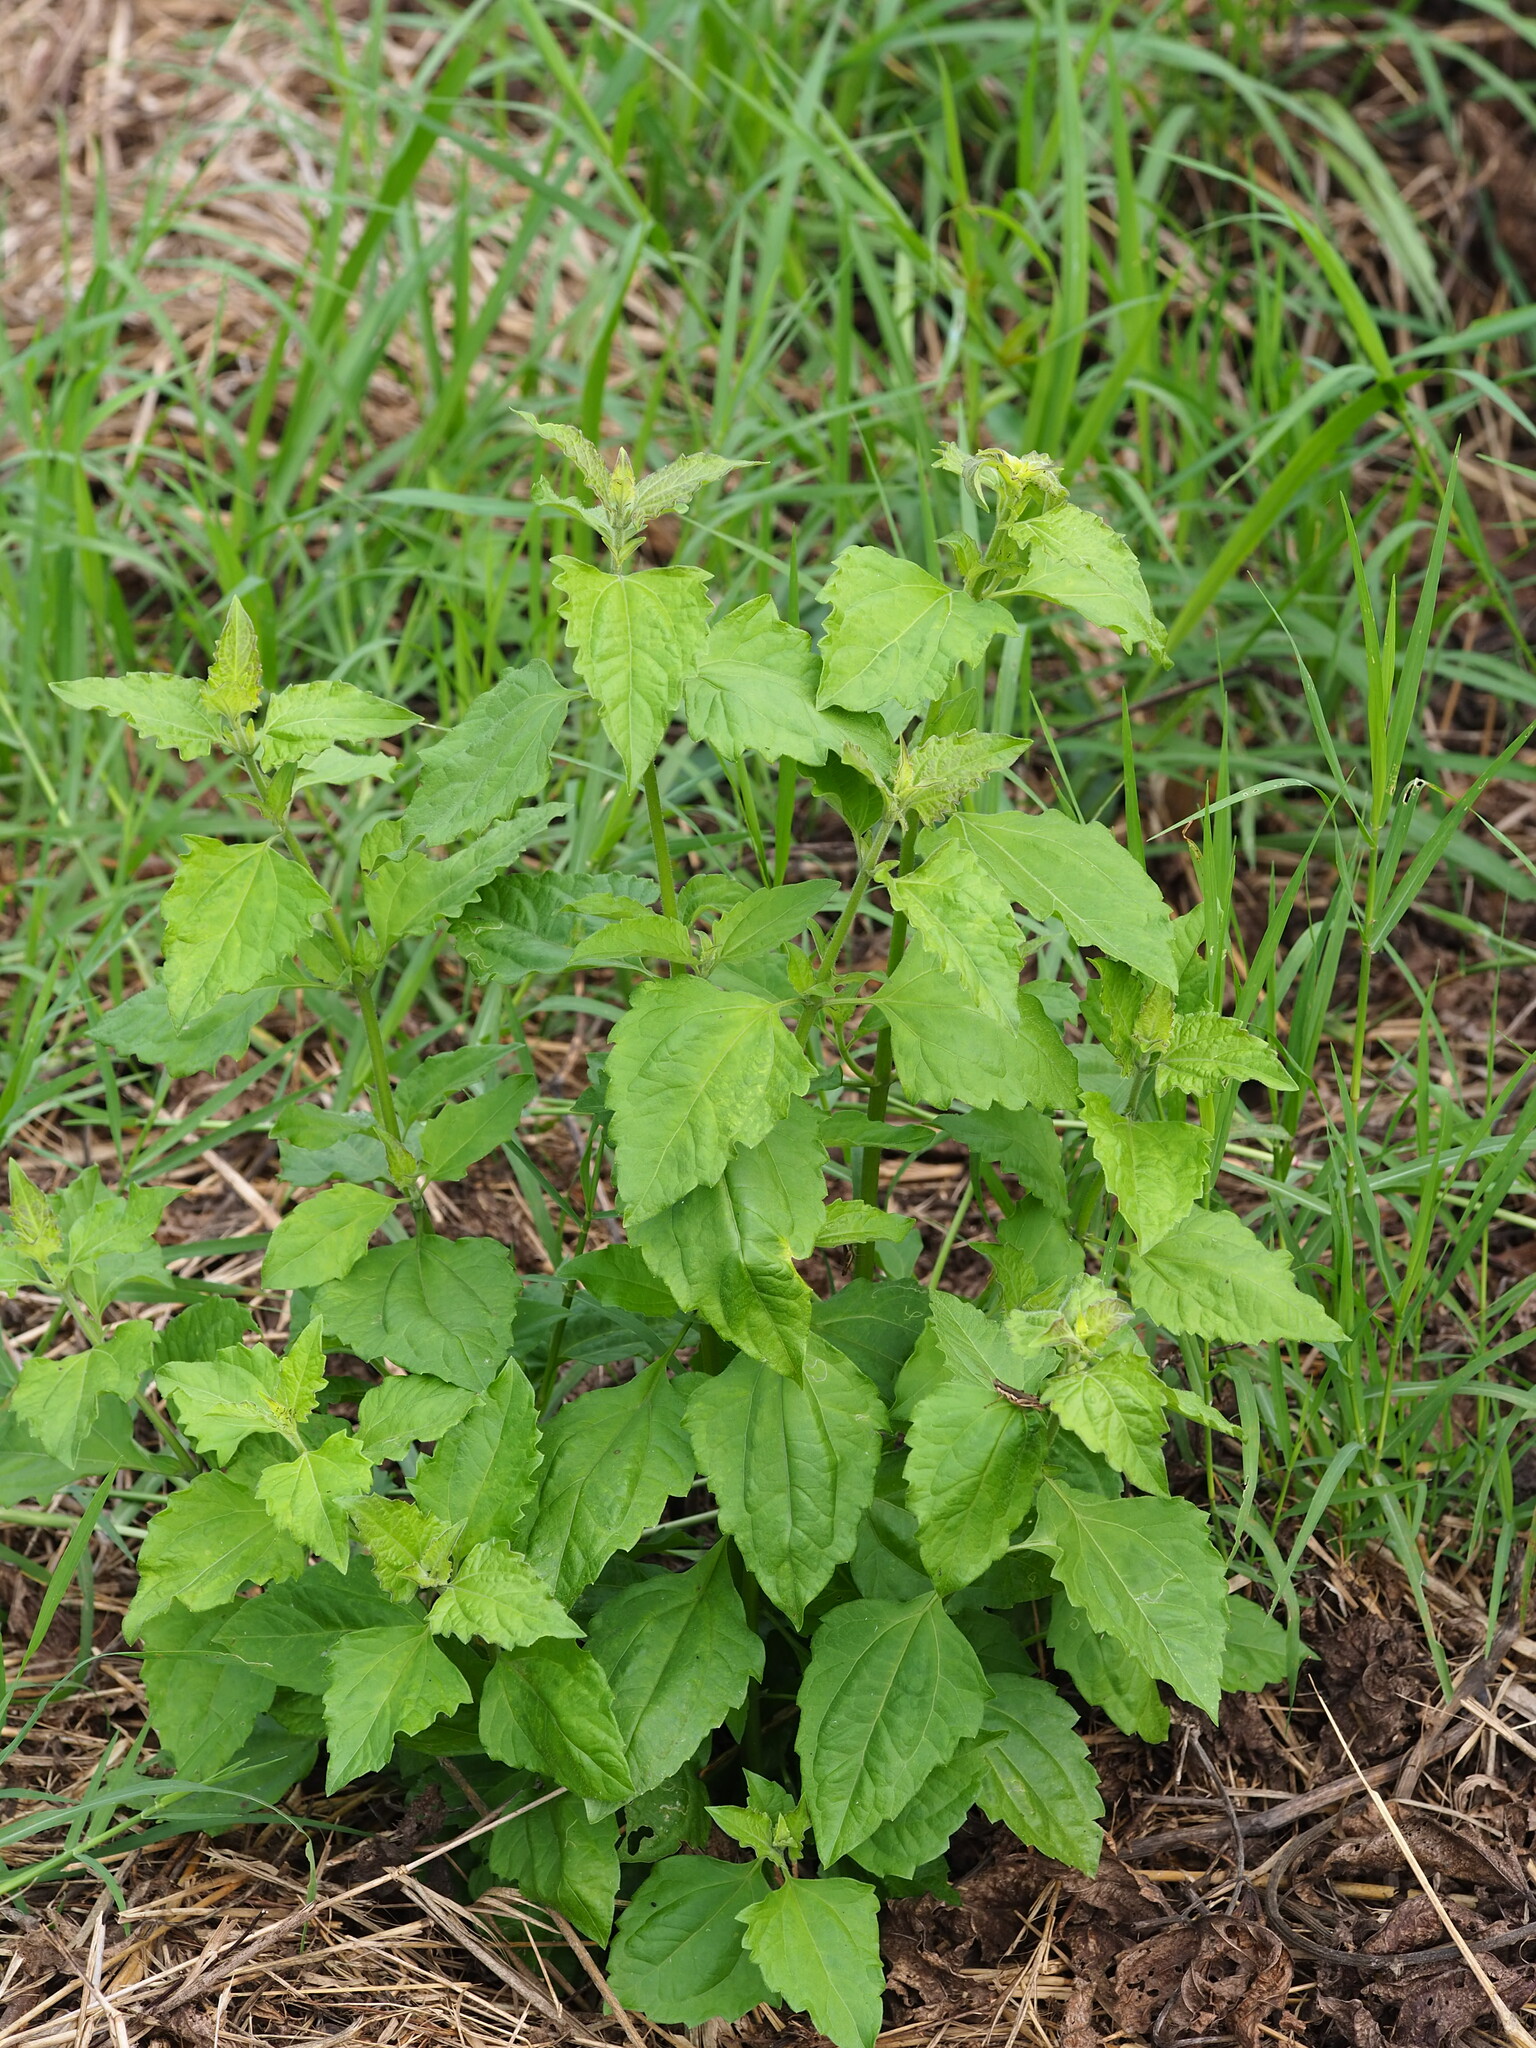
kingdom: Plantae
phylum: Tracheophyta
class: Magnoliopsida
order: Asterales
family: Asteraceae
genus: Chromolaena
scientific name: Chromolaena odorata
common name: Siamweed
